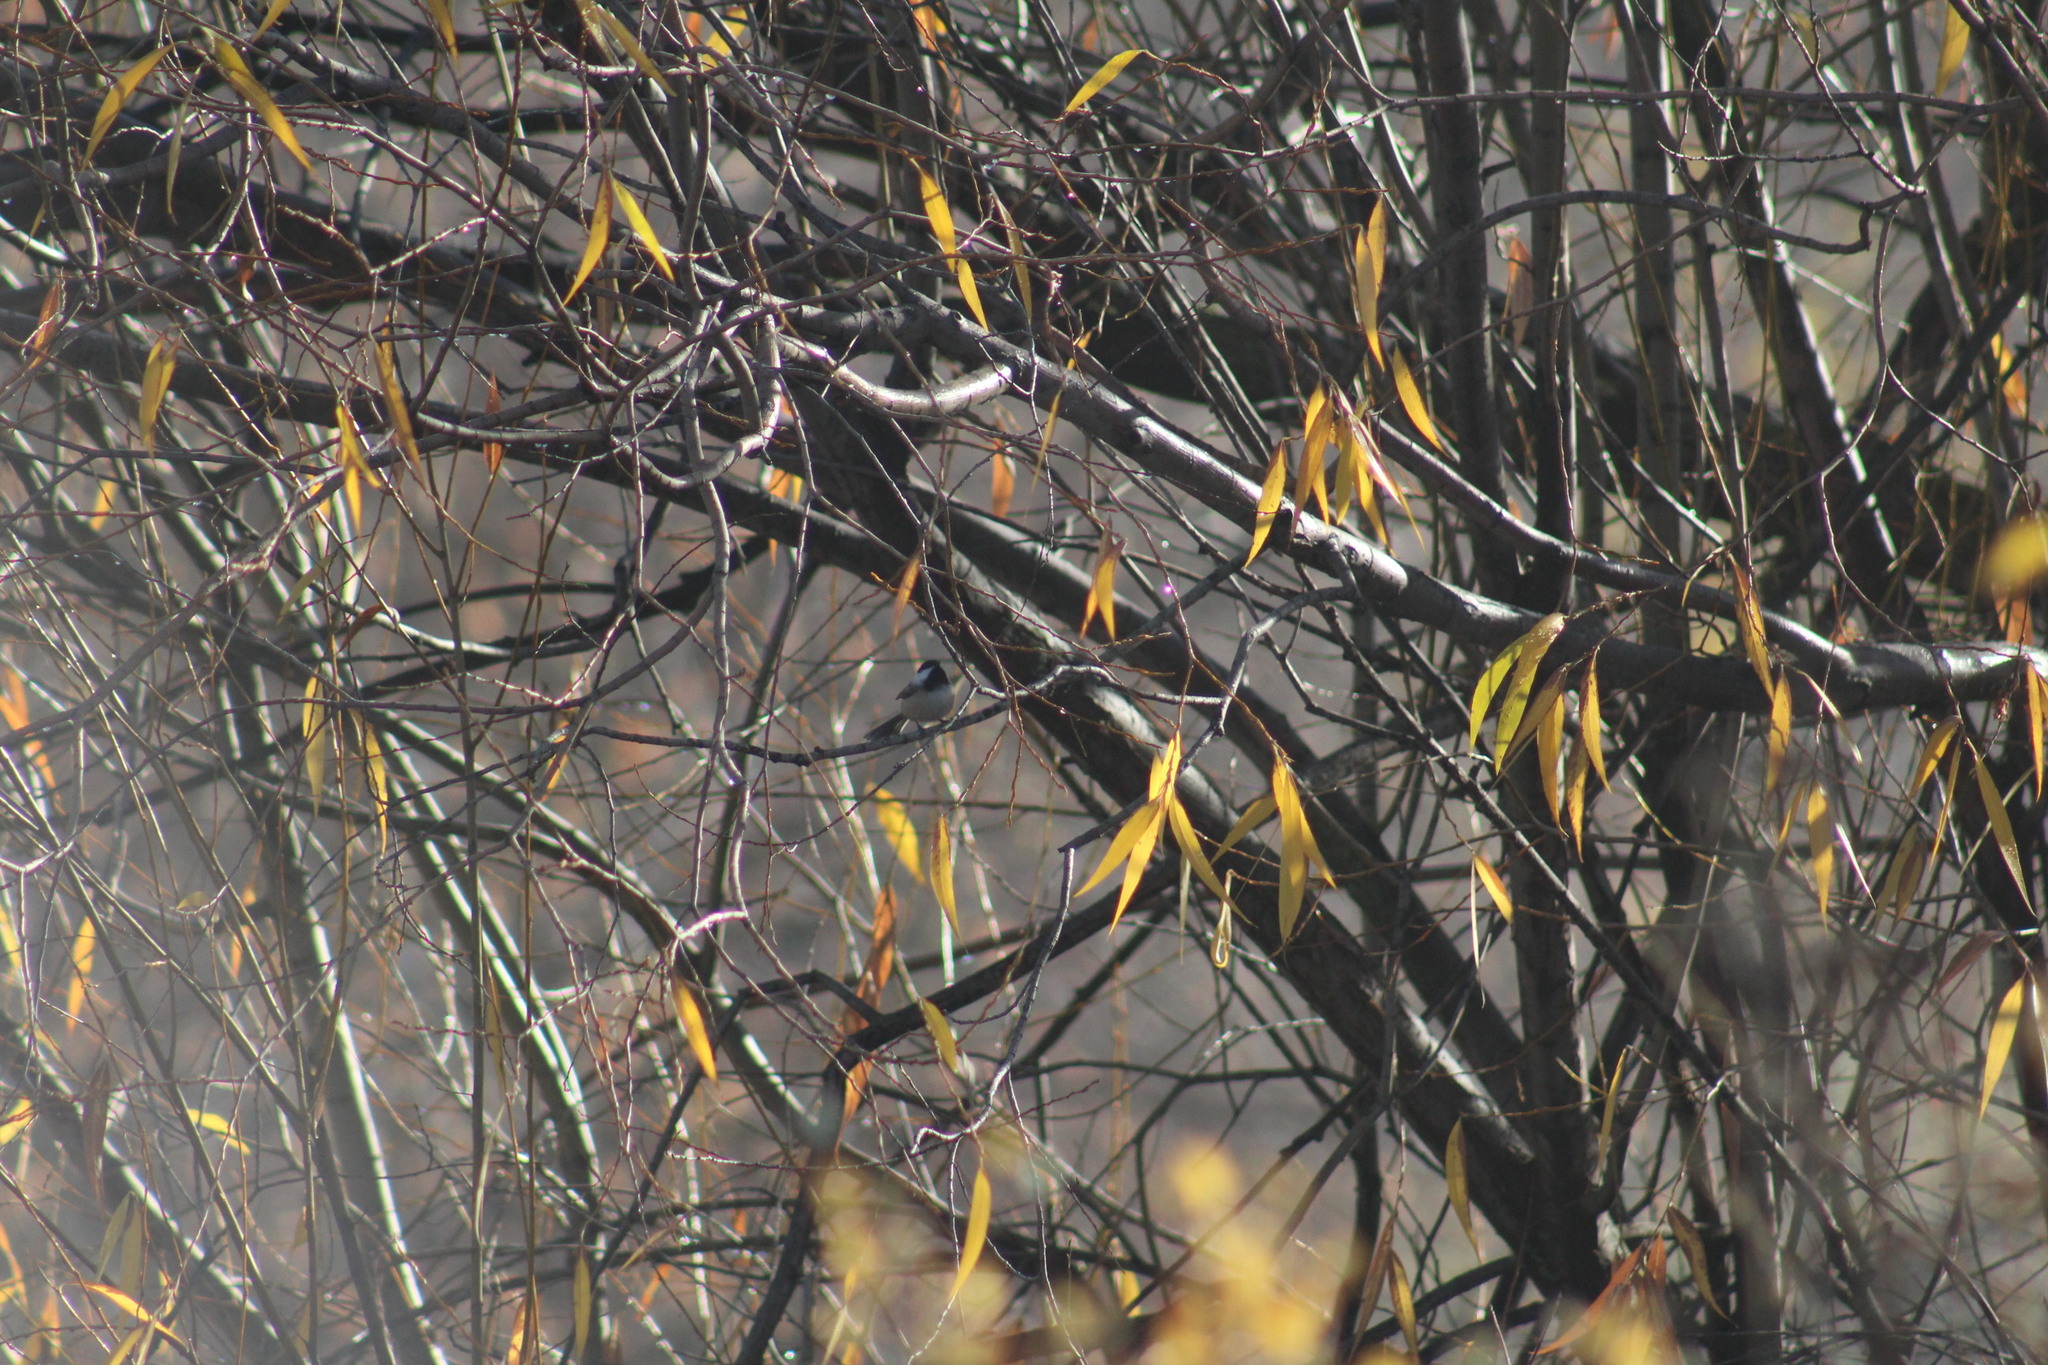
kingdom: Animalia
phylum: Chordata
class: Aves
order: Passeriformes
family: Paridae
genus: Poecile
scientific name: Poecile atricapillus
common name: Black-capped chickadee
